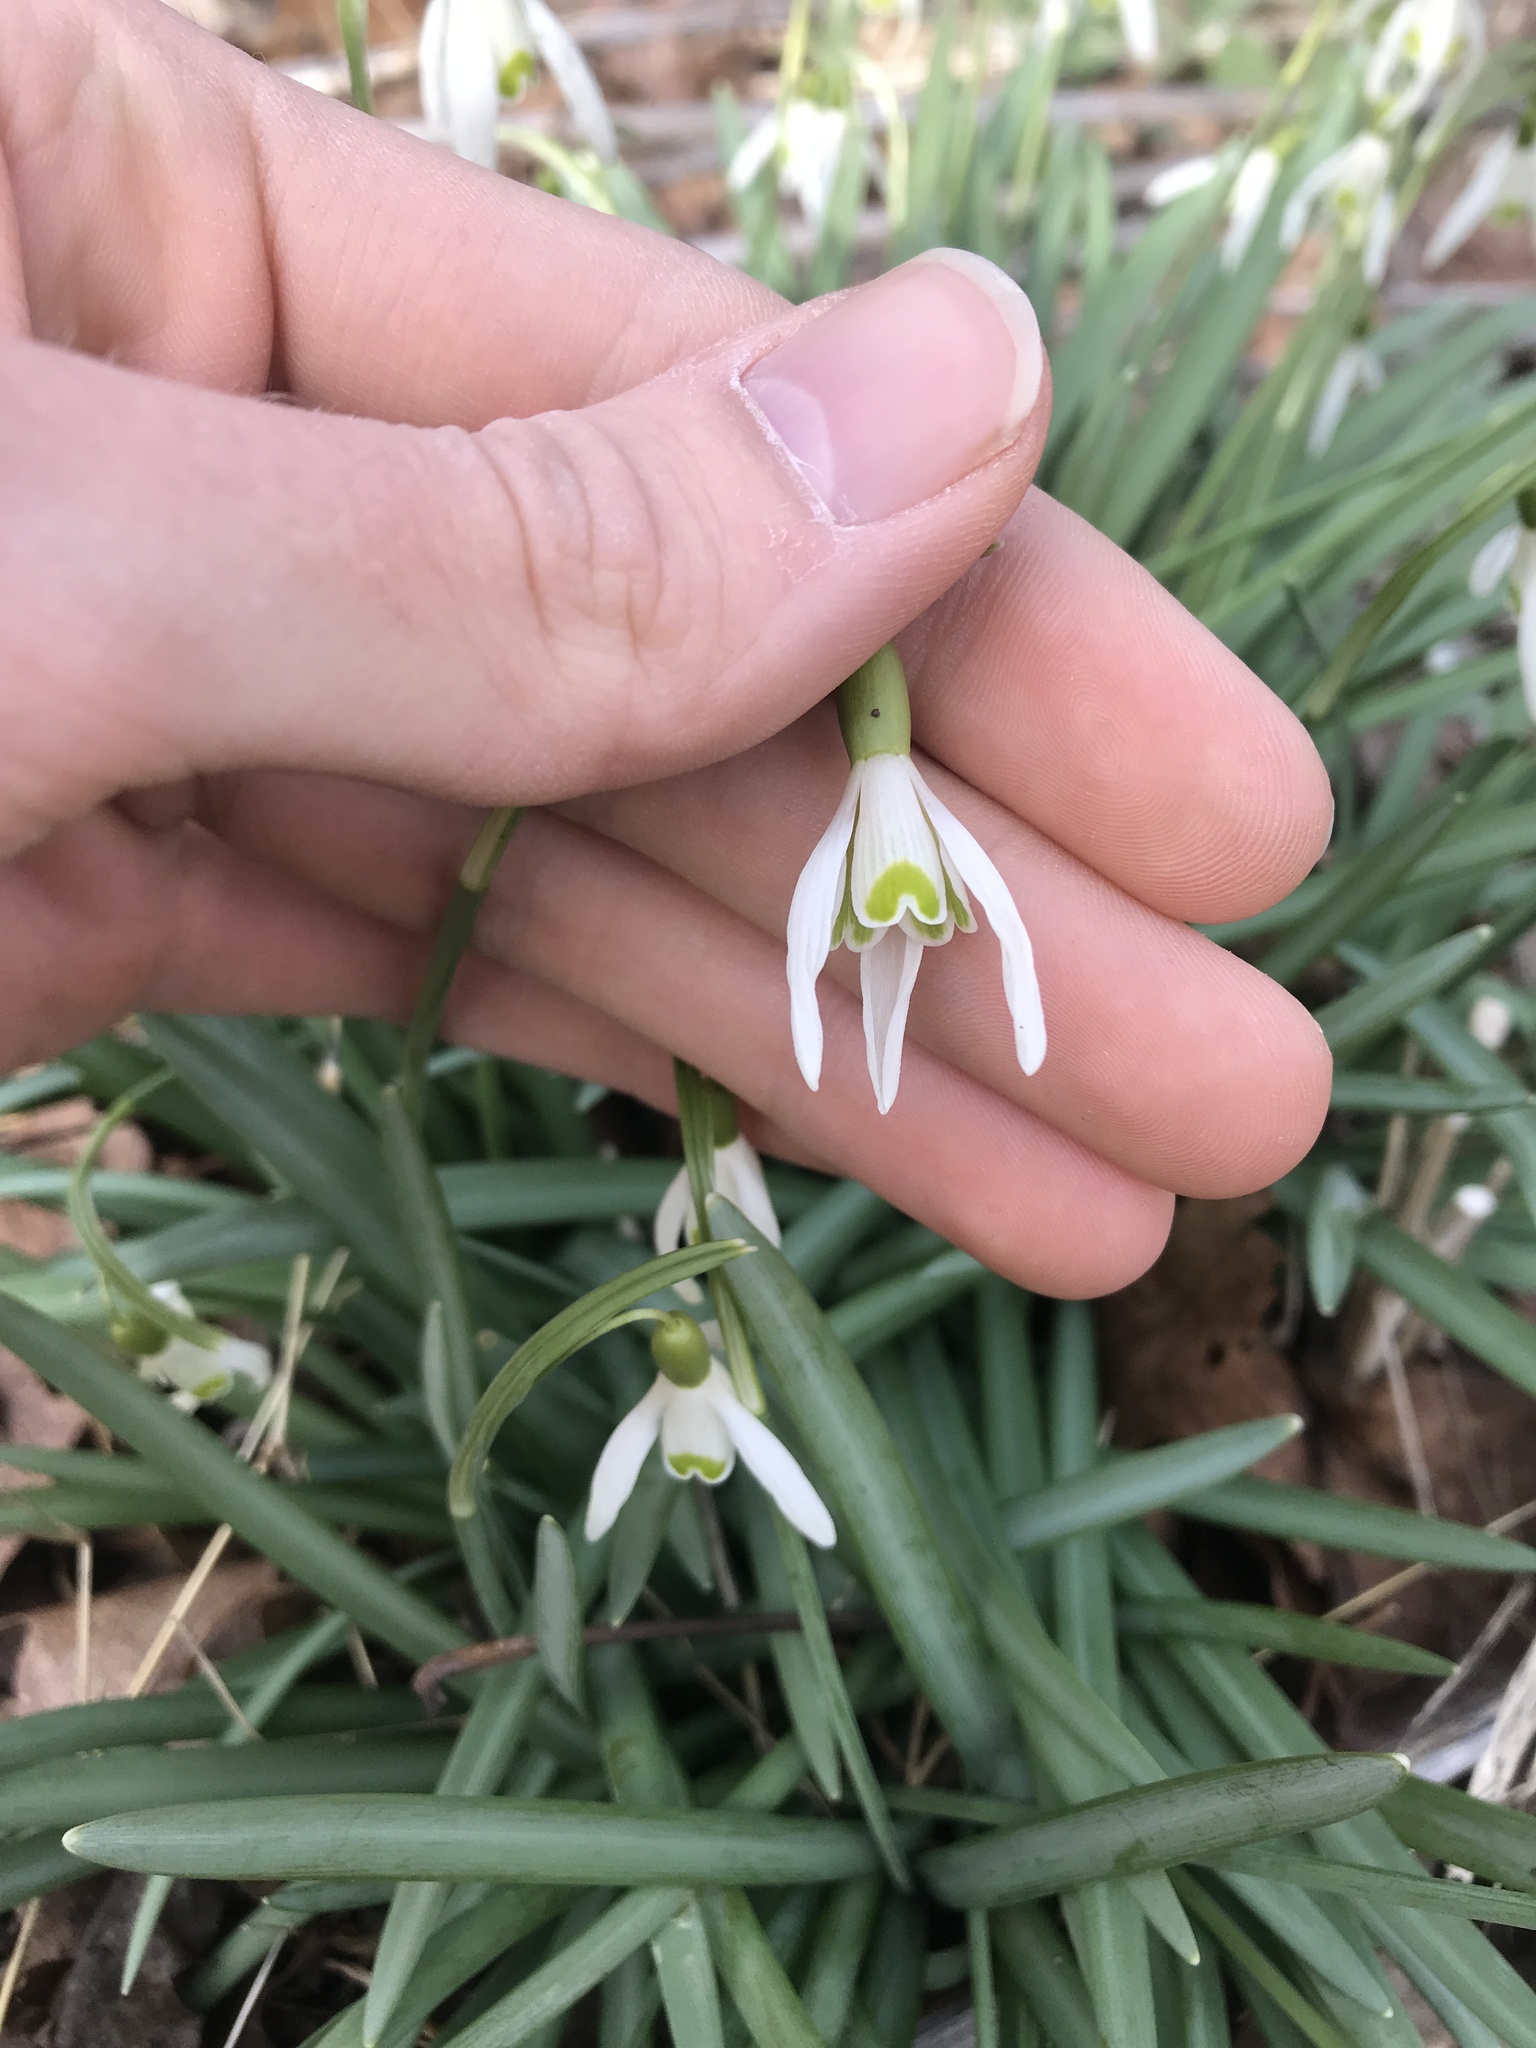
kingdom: Plantae
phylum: Tracheophyta
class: Liliopsida
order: Asparagales
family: Amaryllidaceae
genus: Galanthus
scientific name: Galanthus nivalis
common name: Snowdrop
